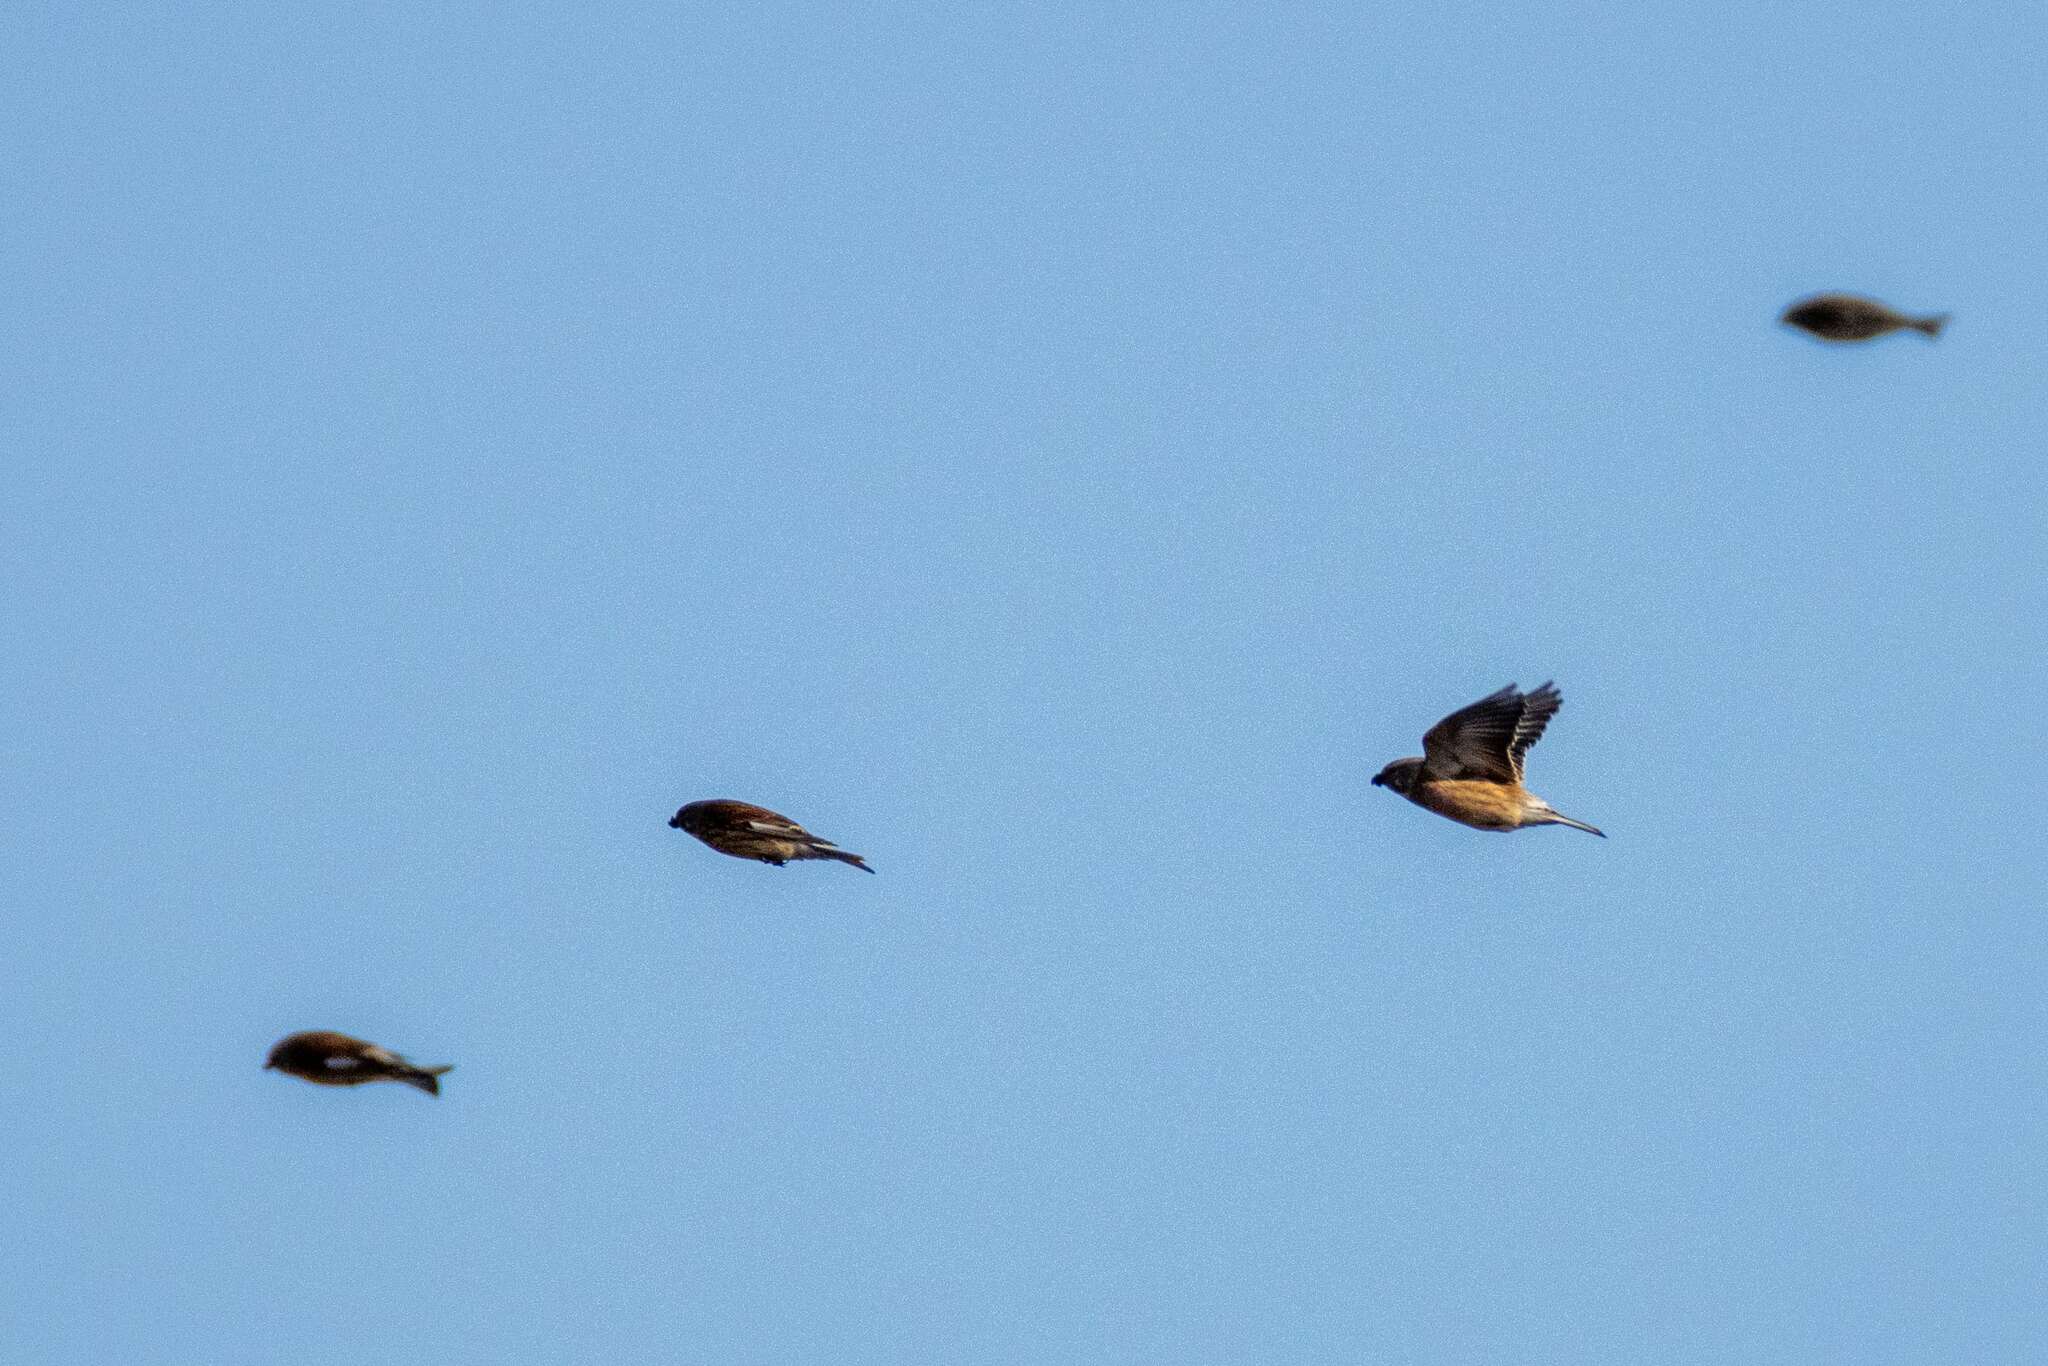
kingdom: Animalia
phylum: Chordata
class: Aves
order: Passeriformes
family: Fringillidae
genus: Linaria
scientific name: Linaria cannabina
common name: Common linnet
